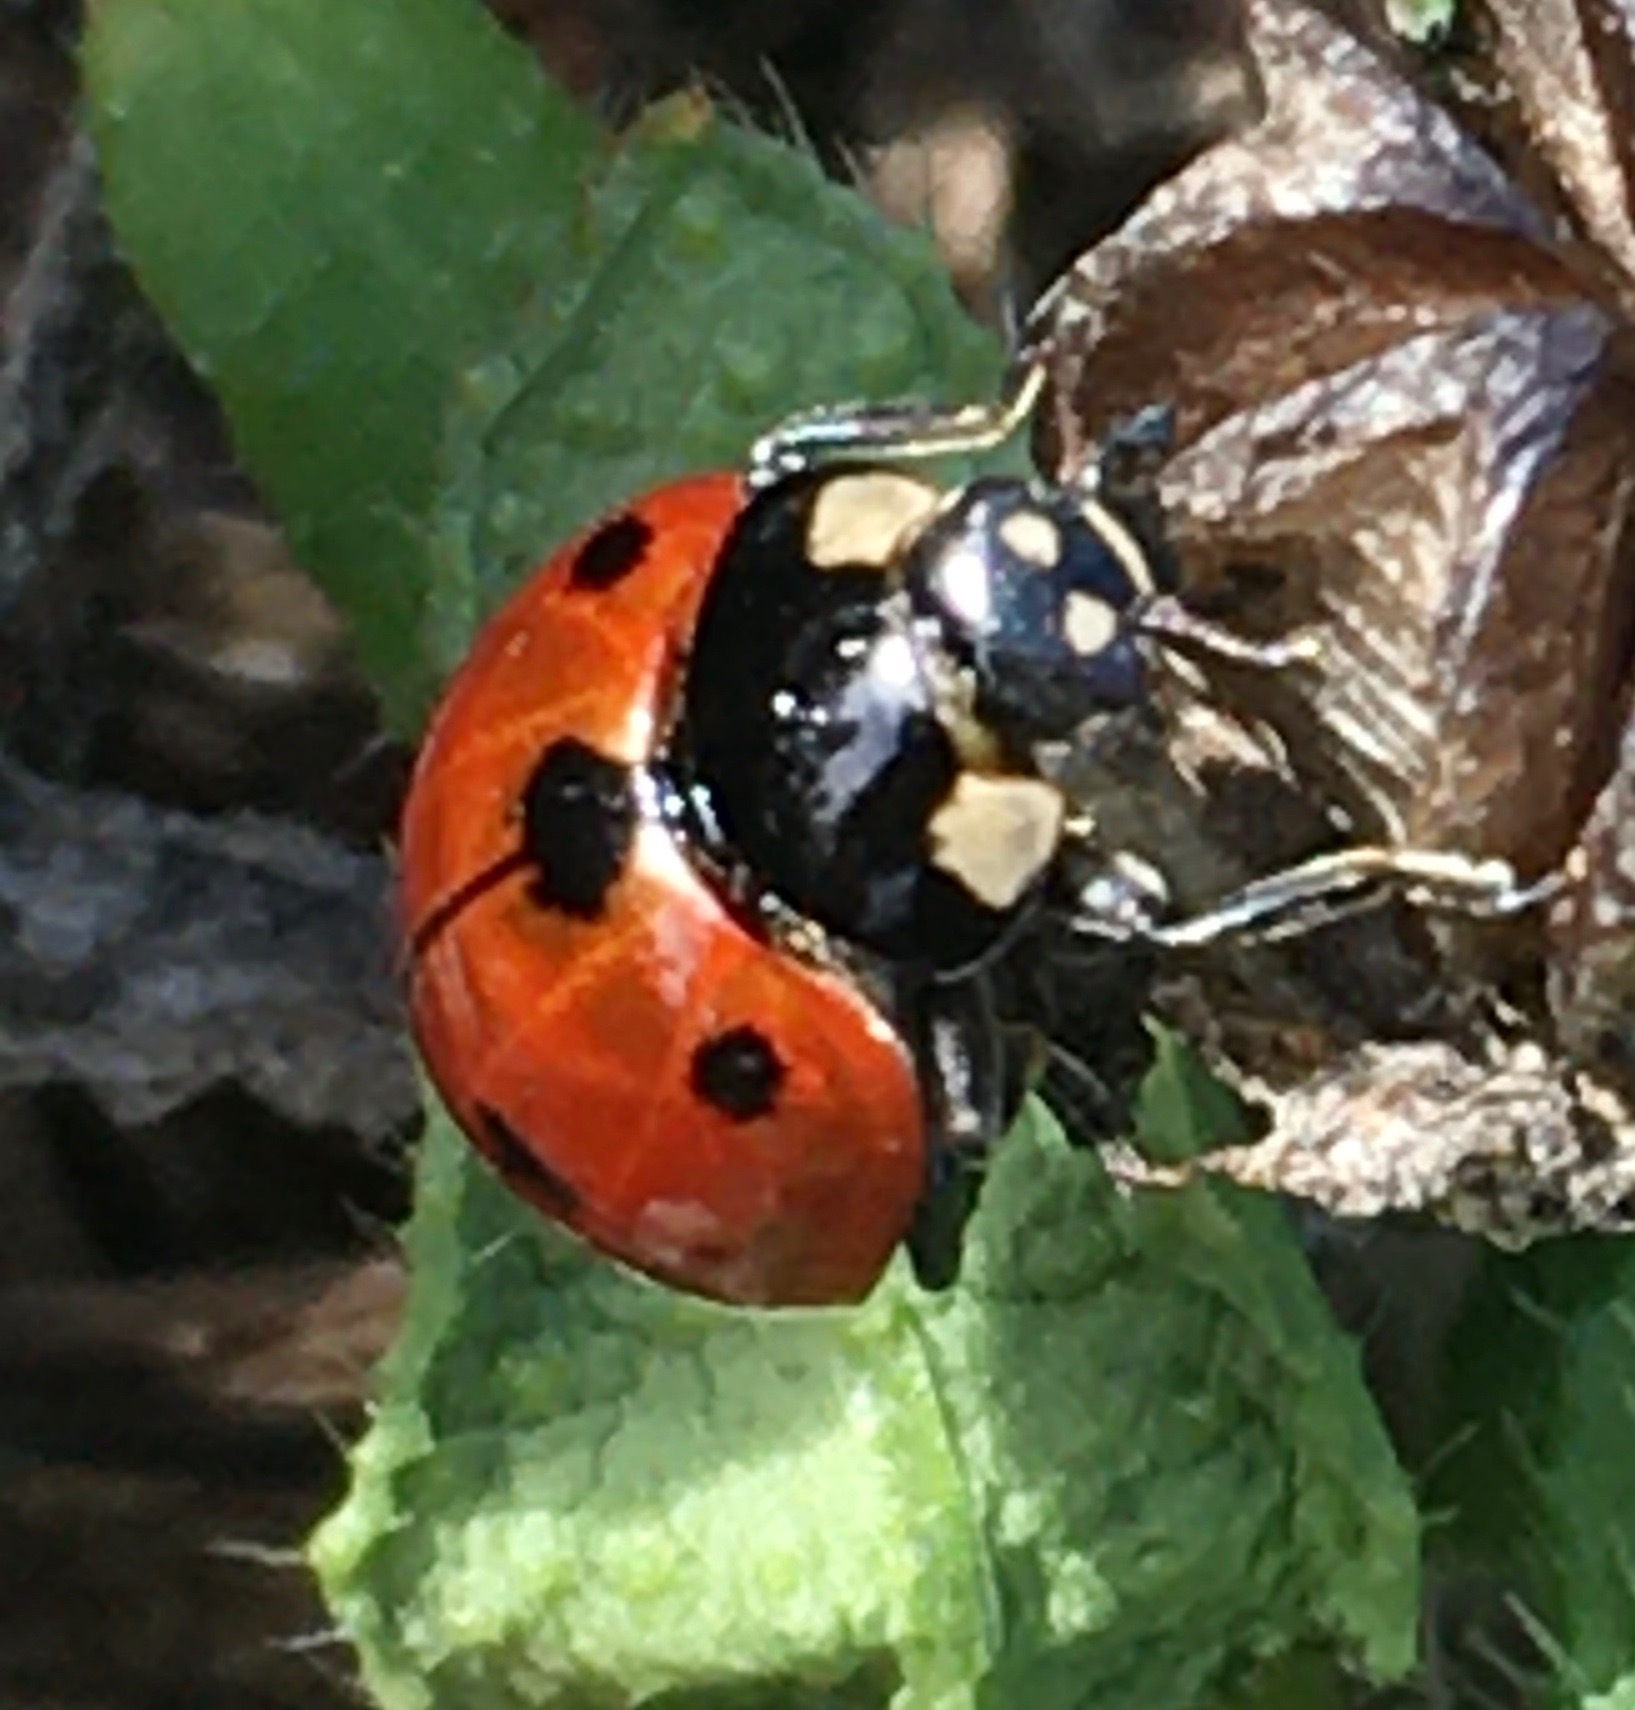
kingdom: Animalia
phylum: Arthropoda
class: Insecta
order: Coleoptera
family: Coccinellidae
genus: Coccinella
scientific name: Coccinella californica
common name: Lady beetle
